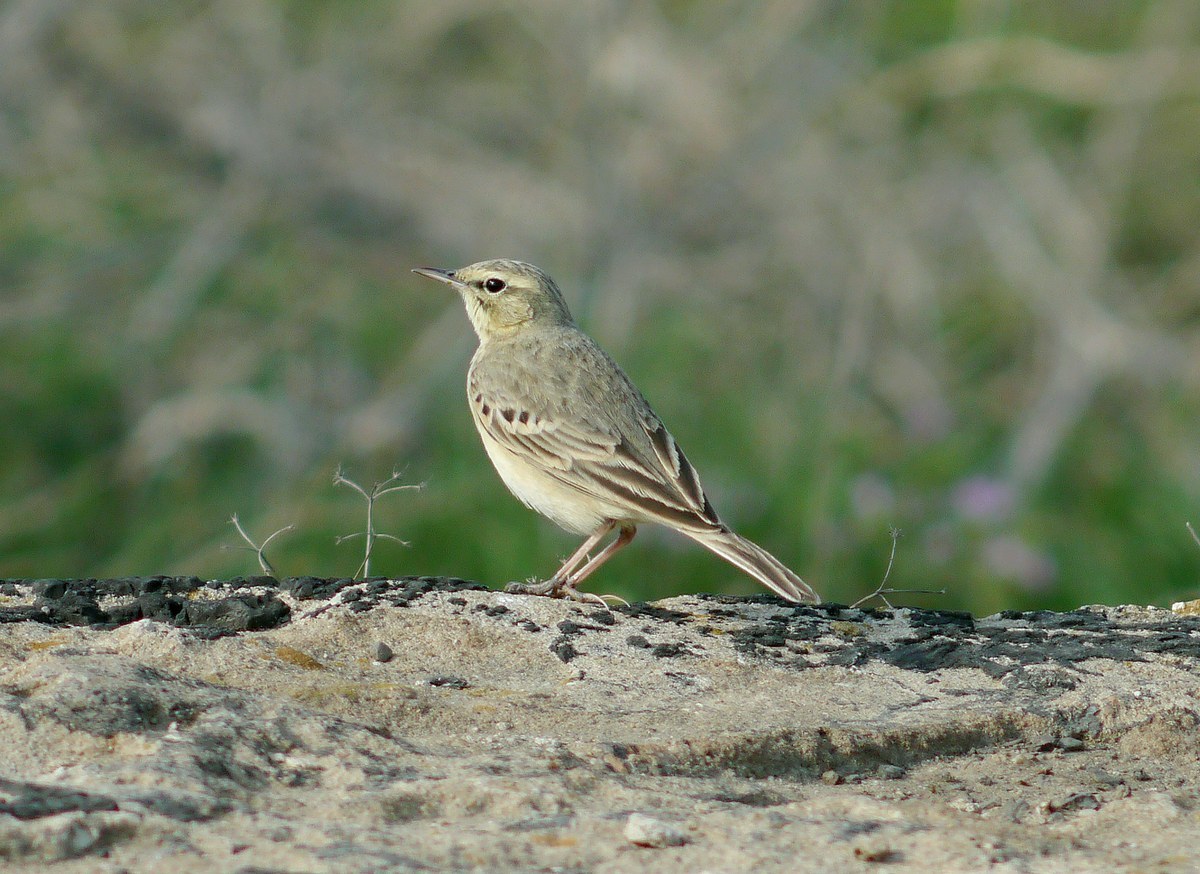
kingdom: Animalia
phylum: Chordata
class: Aves
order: Passeriformes
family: Motacillidae
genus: Anthus
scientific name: Anthus campestris
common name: Tawny pipit
